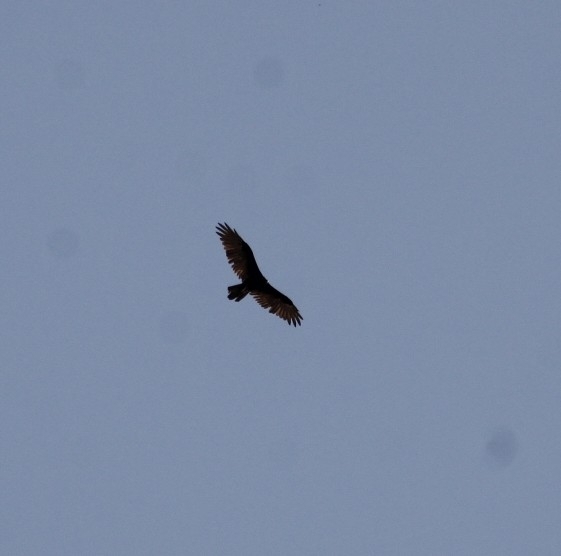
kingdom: Animalia
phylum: Chordata
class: Aves
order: Accipitriformes
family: Cathartidae
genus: Cathartes
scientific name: Cathartes aura
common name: Turkey vulture
